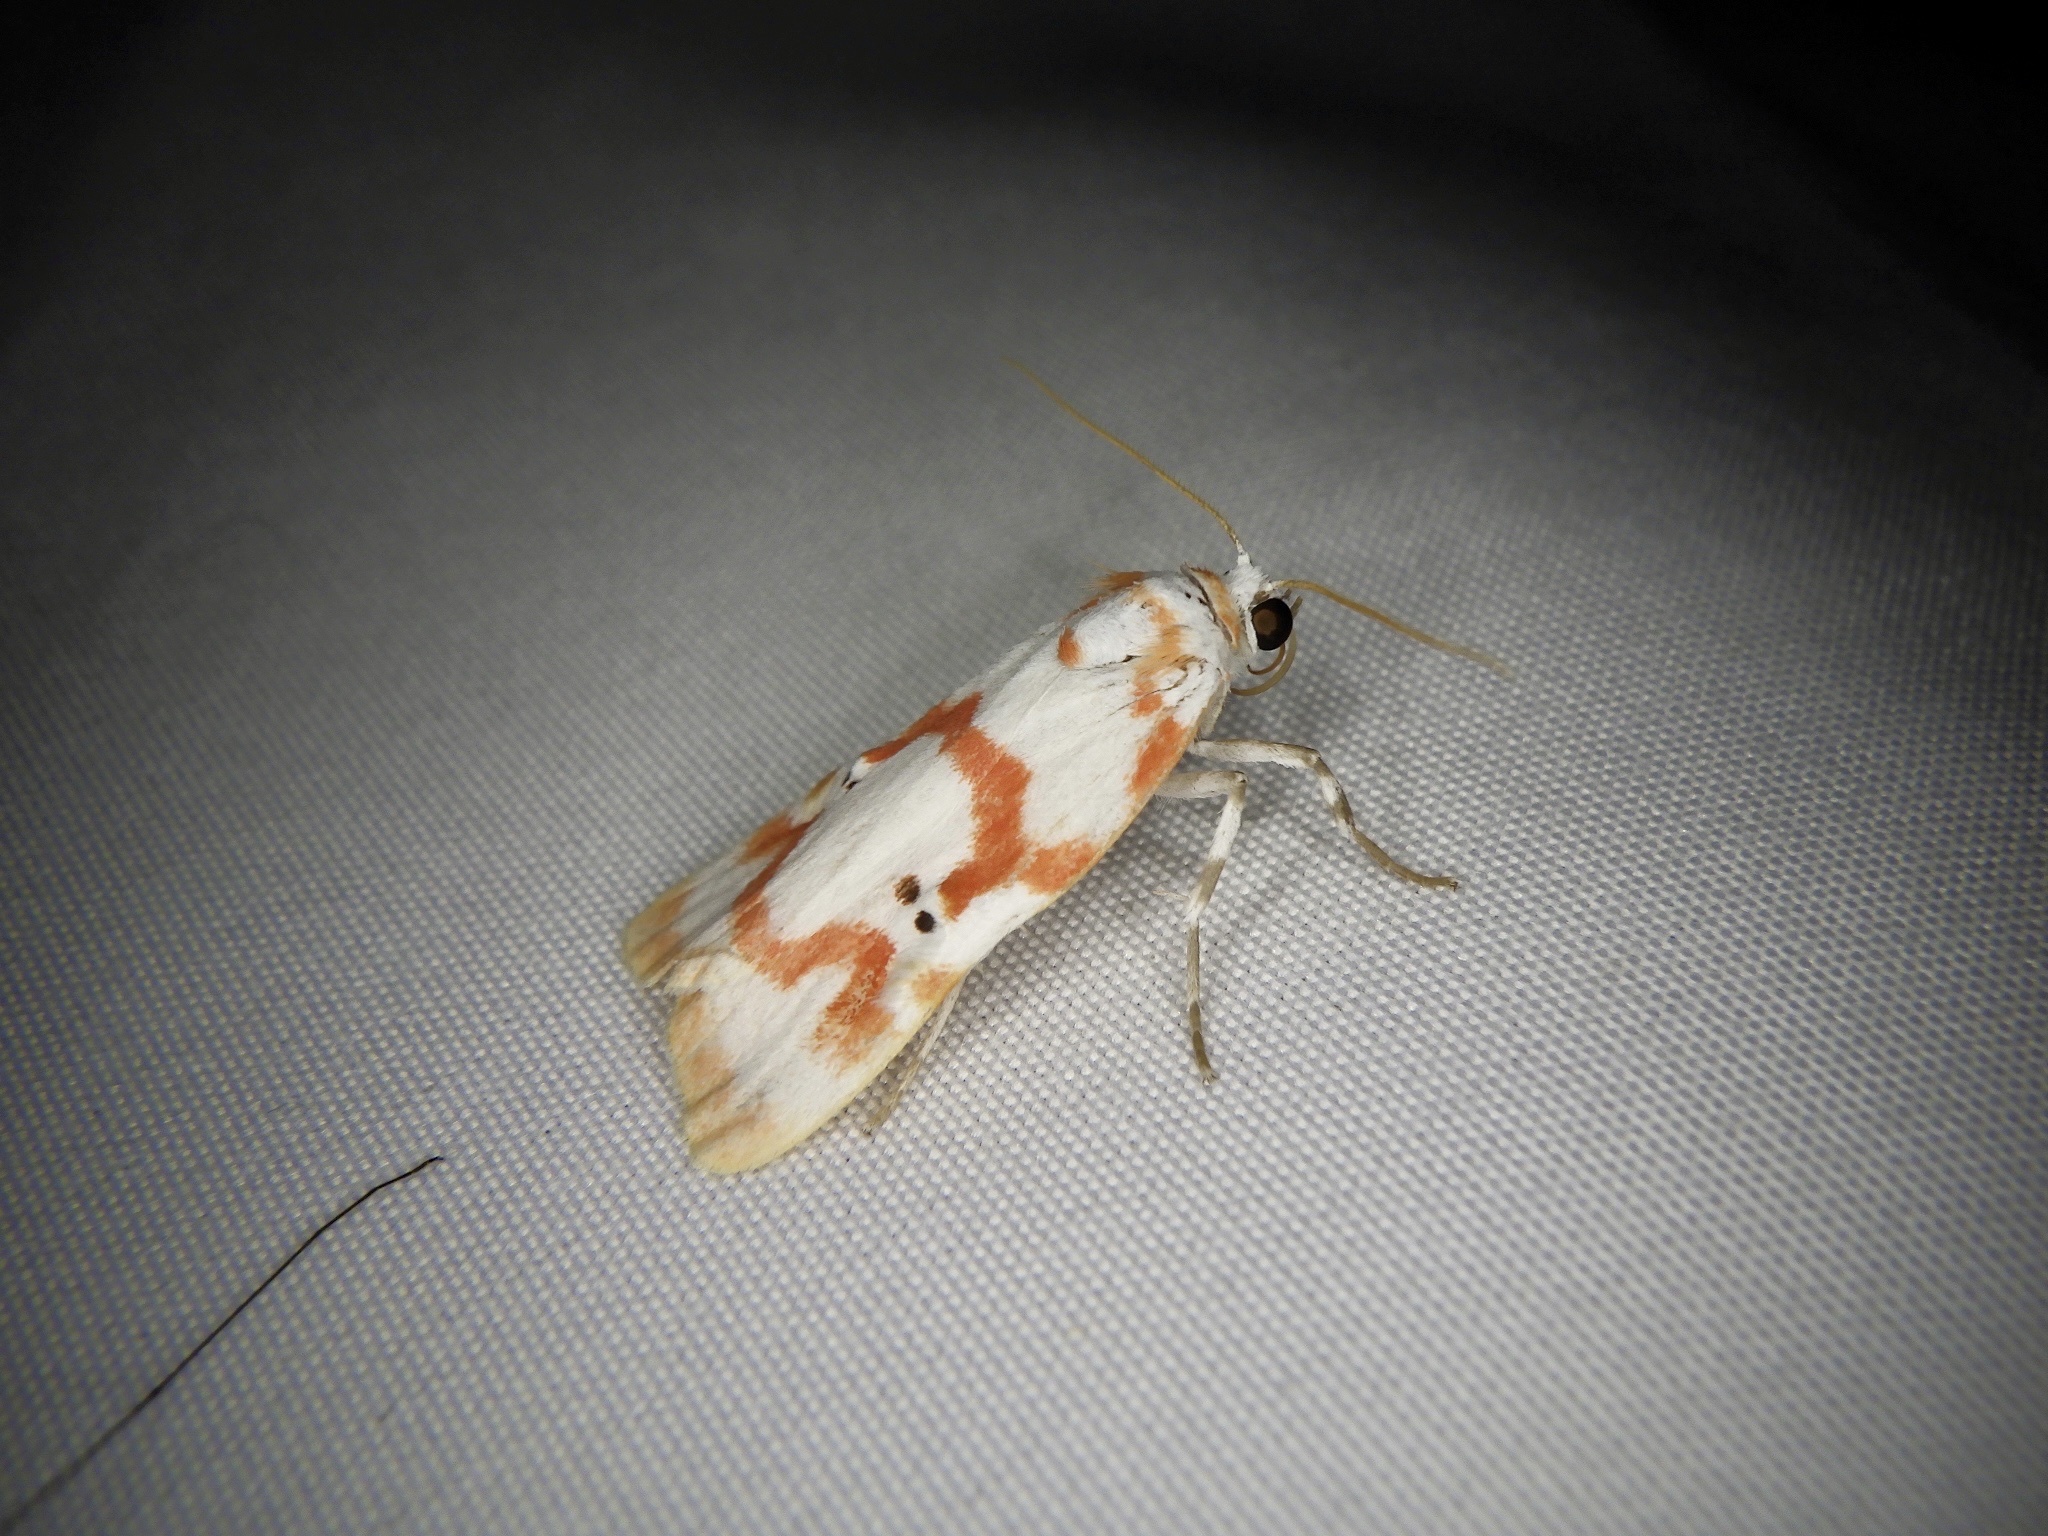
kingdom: Animalia
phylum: Arthropoda
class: Insecta
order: Lepidoptera
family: Erebidae
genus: Cyana
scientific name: Cyana hamata
